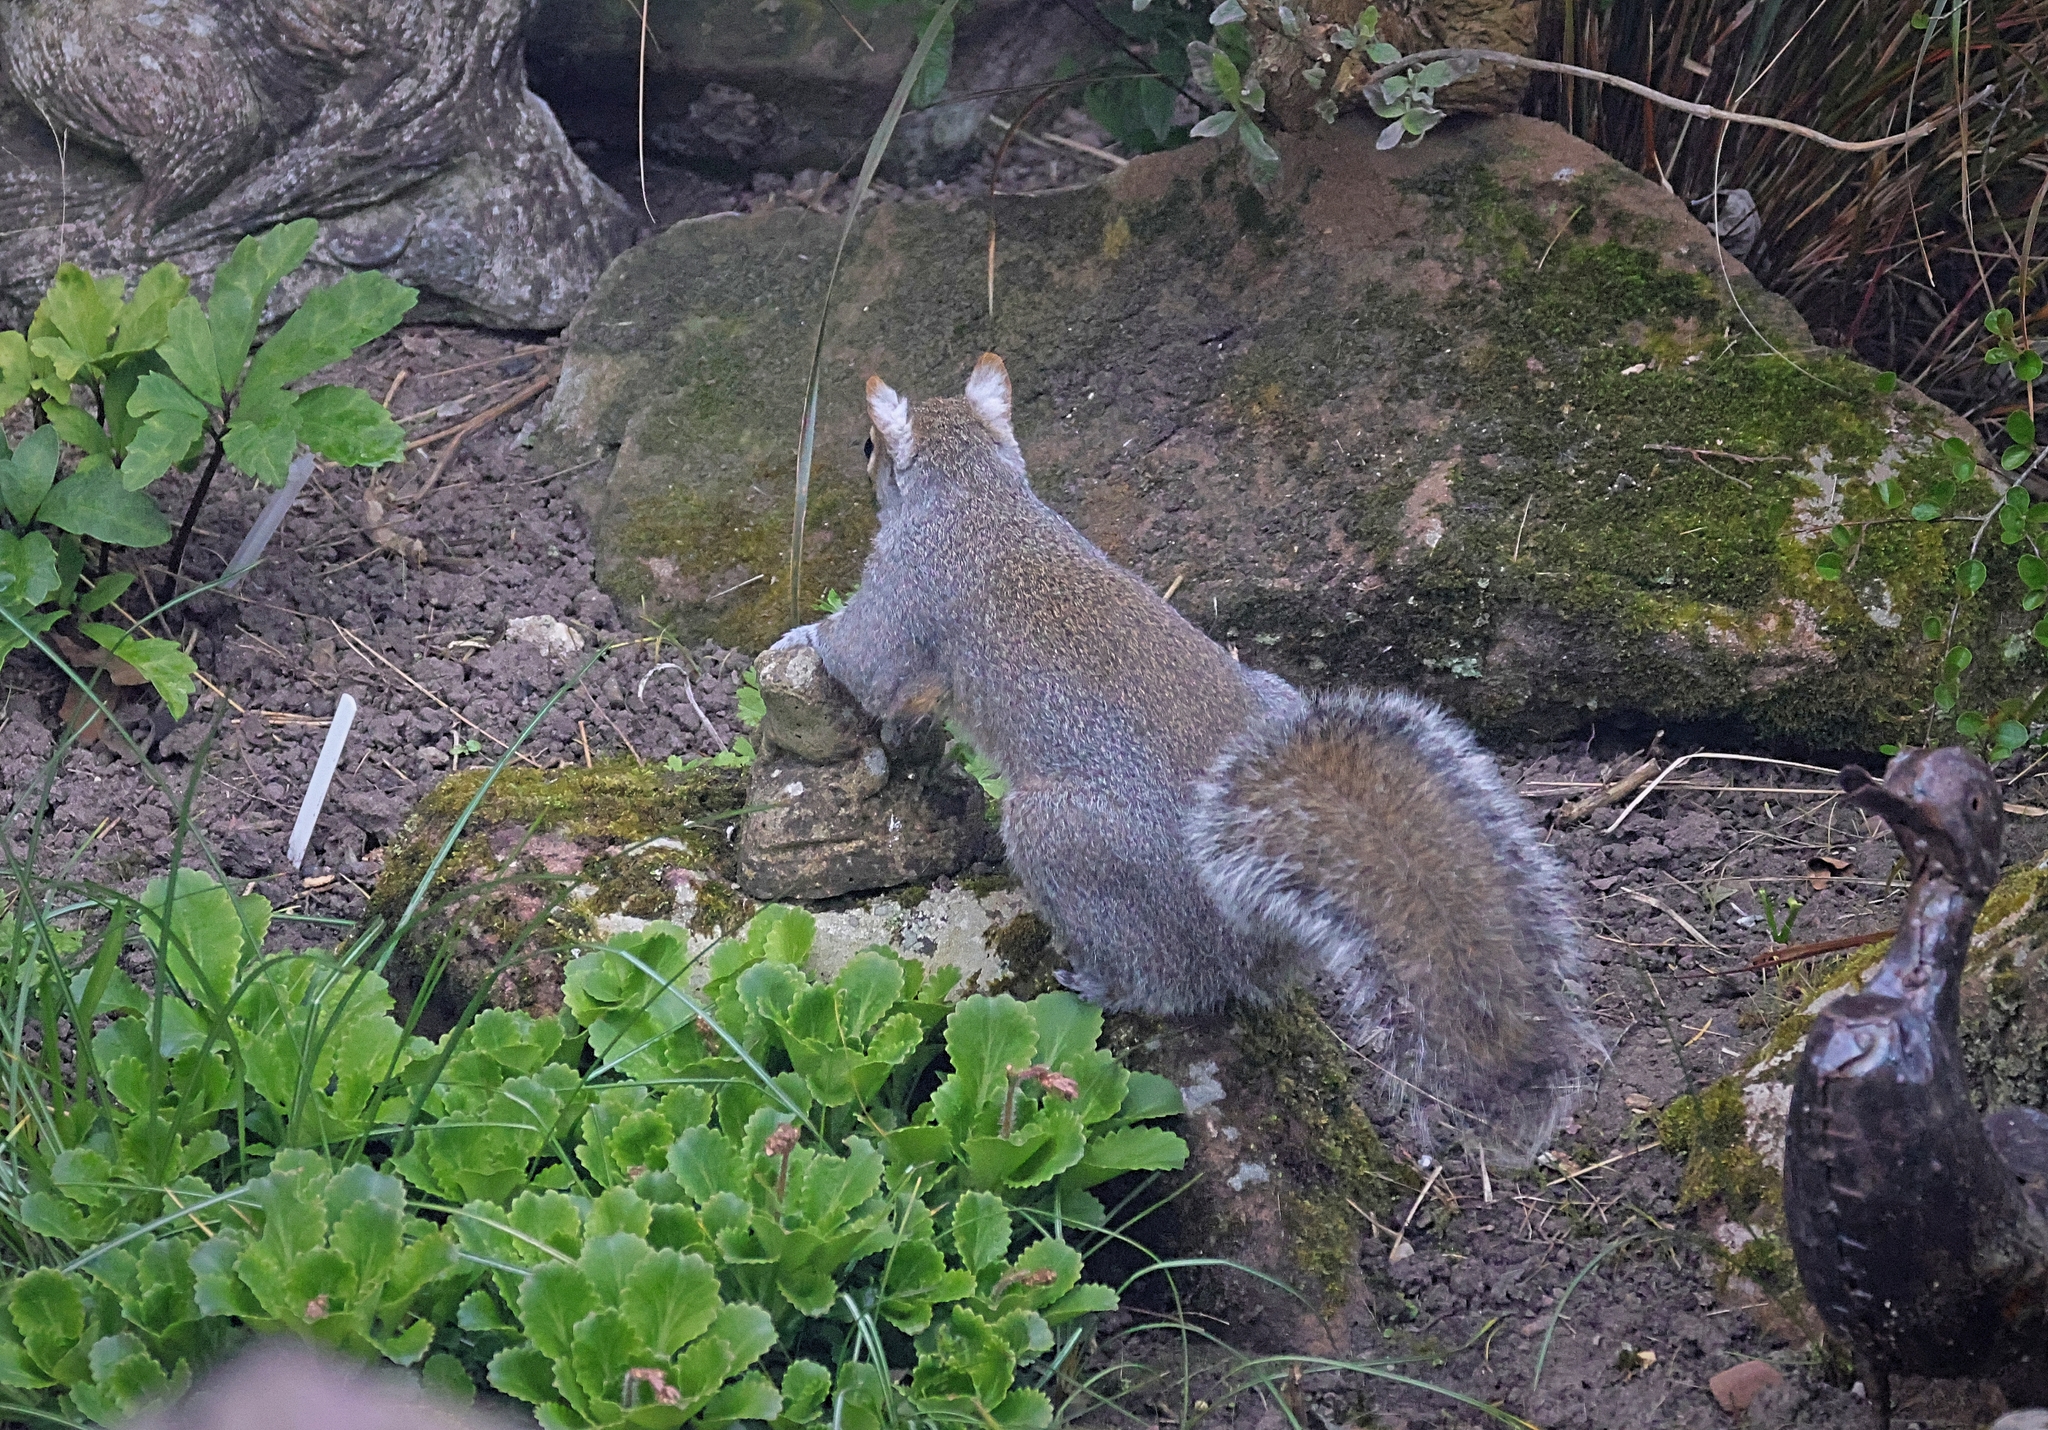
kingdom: Animalia
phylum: Chordata
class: Mammalia
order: Rodentia
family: Sciuridae
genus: Sciurus
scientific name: Sciurus carolinensis
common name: Eastern gray squirrel
